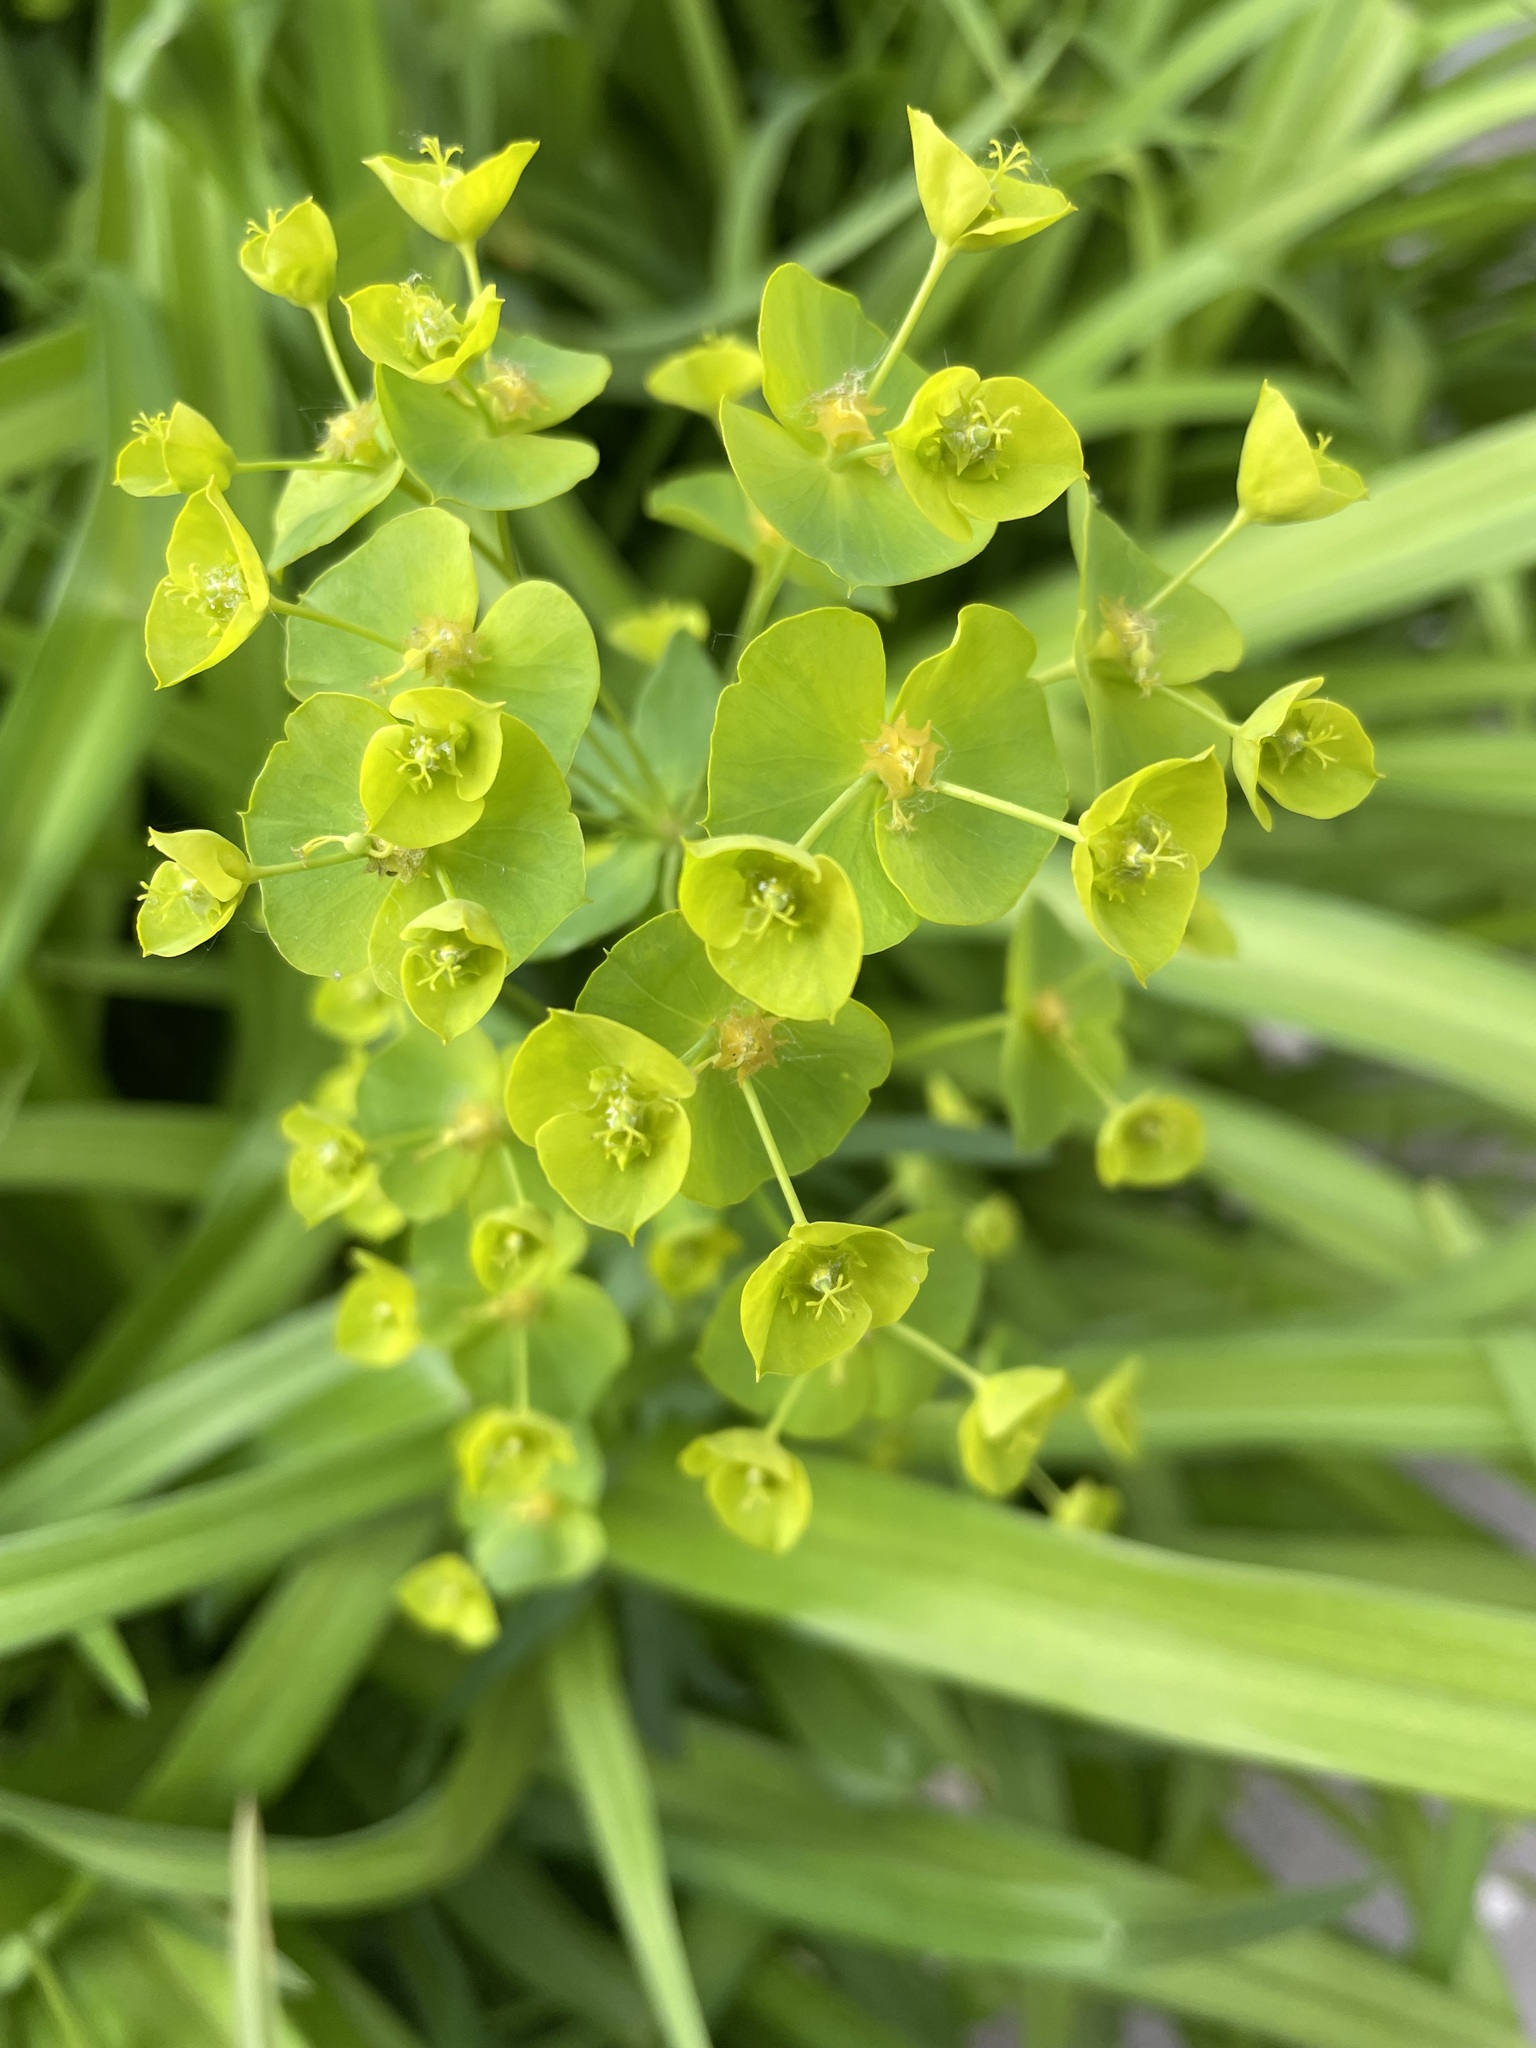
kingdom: Plantae
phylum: Tracheophyta
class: Magnoliopsida
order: Malpighiales
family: Euphorbiaceae
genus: Euphorbia
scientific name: Euphorbia virgata
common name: Leafy spurge
